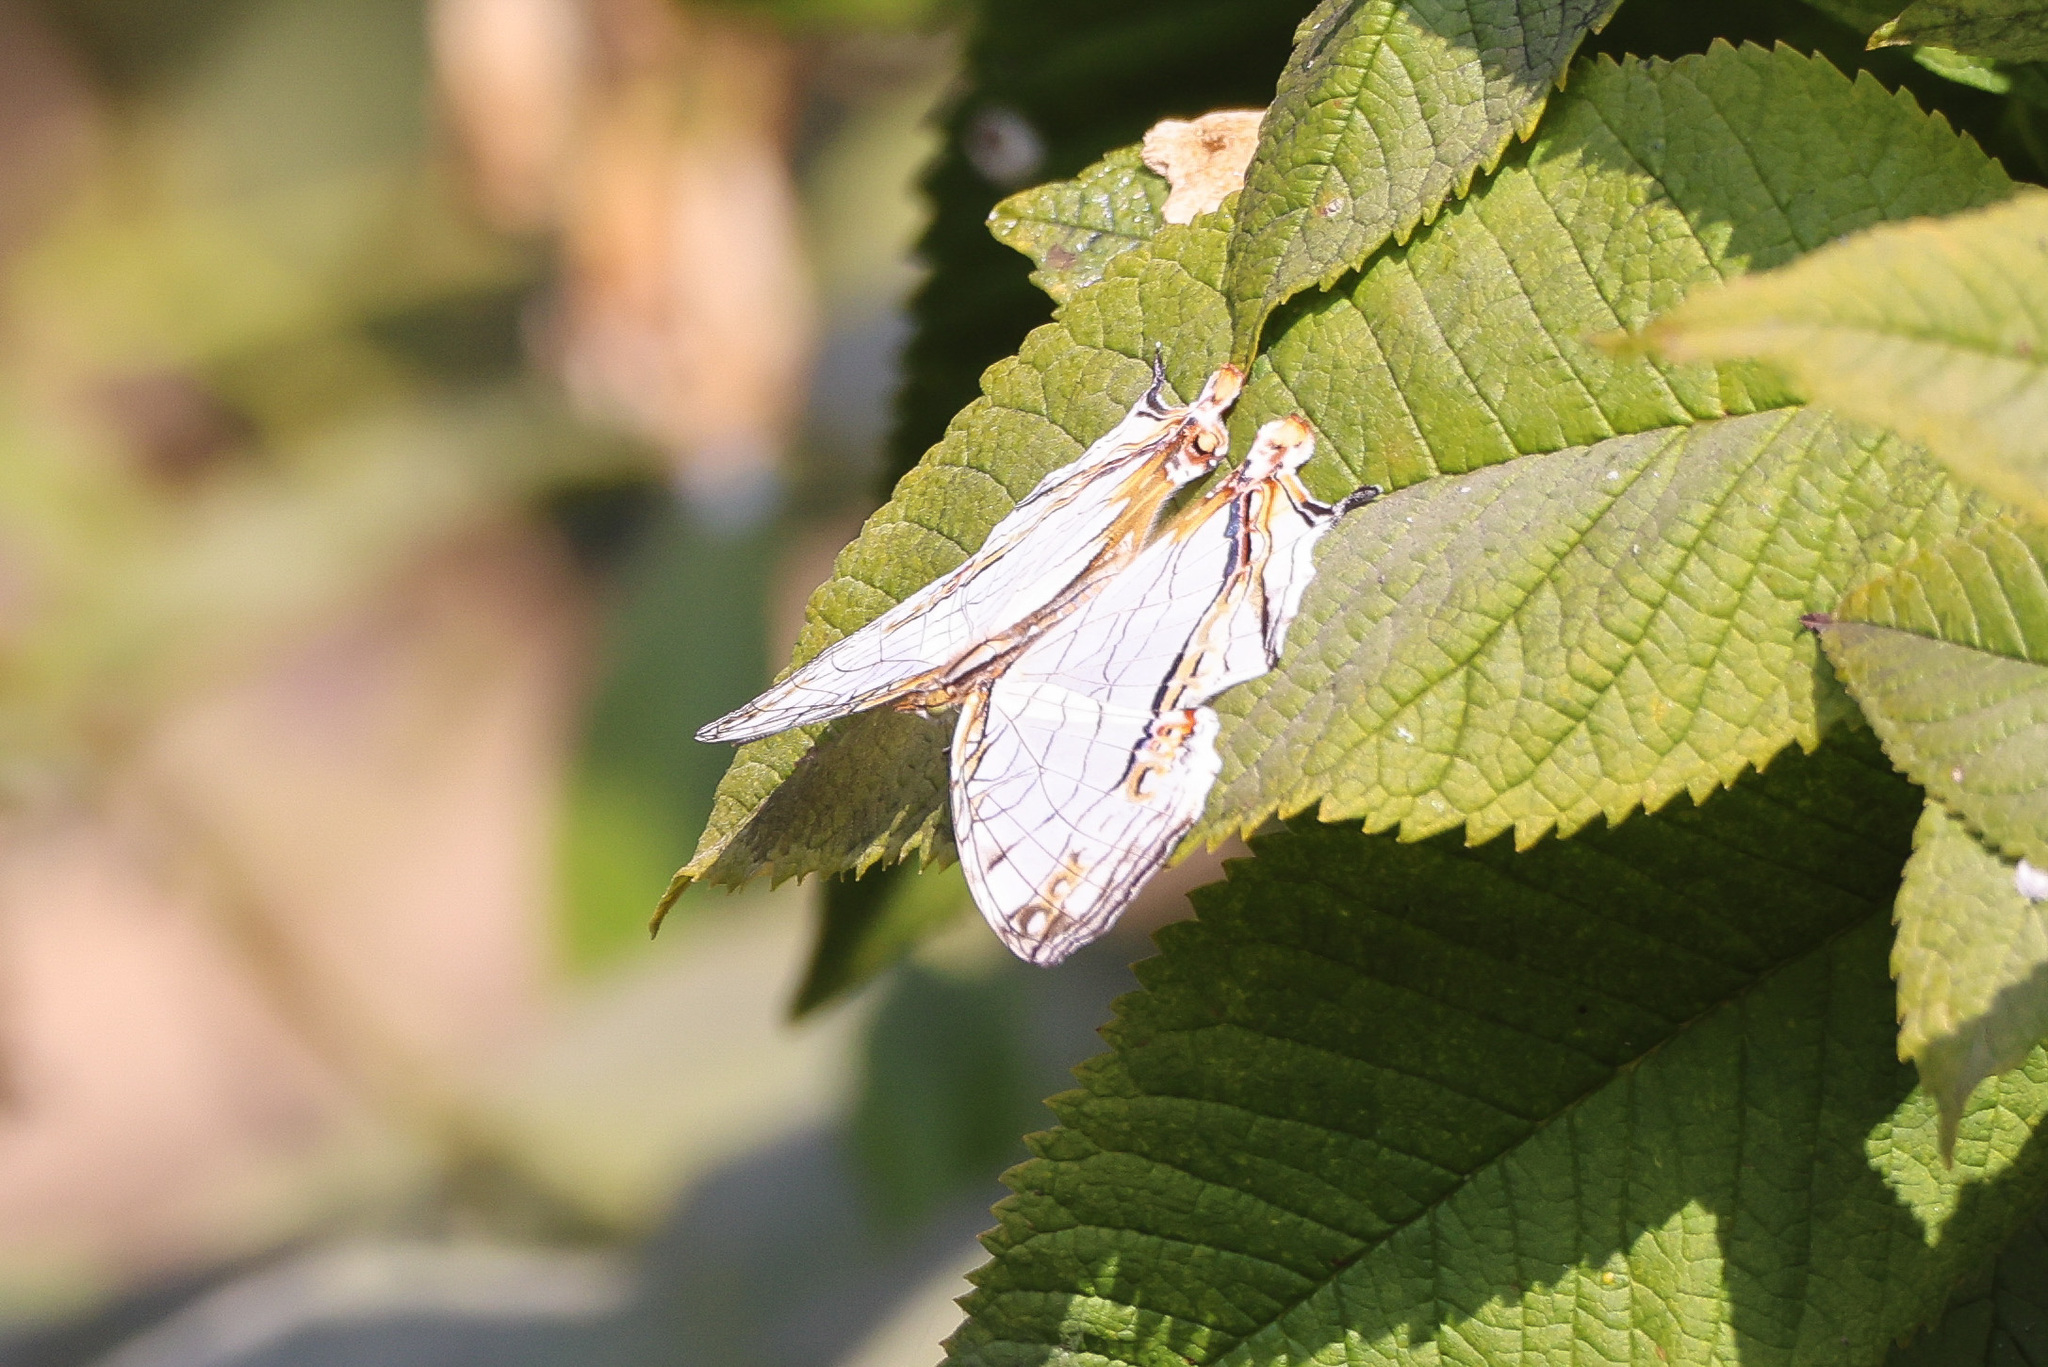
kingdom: Animalia
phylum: Arthropoda
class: Insecta
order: Lepidoptera
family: Nymphalidae
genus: Cyrestis
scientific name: Cyrestis thyodamas
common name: Common mapwing
